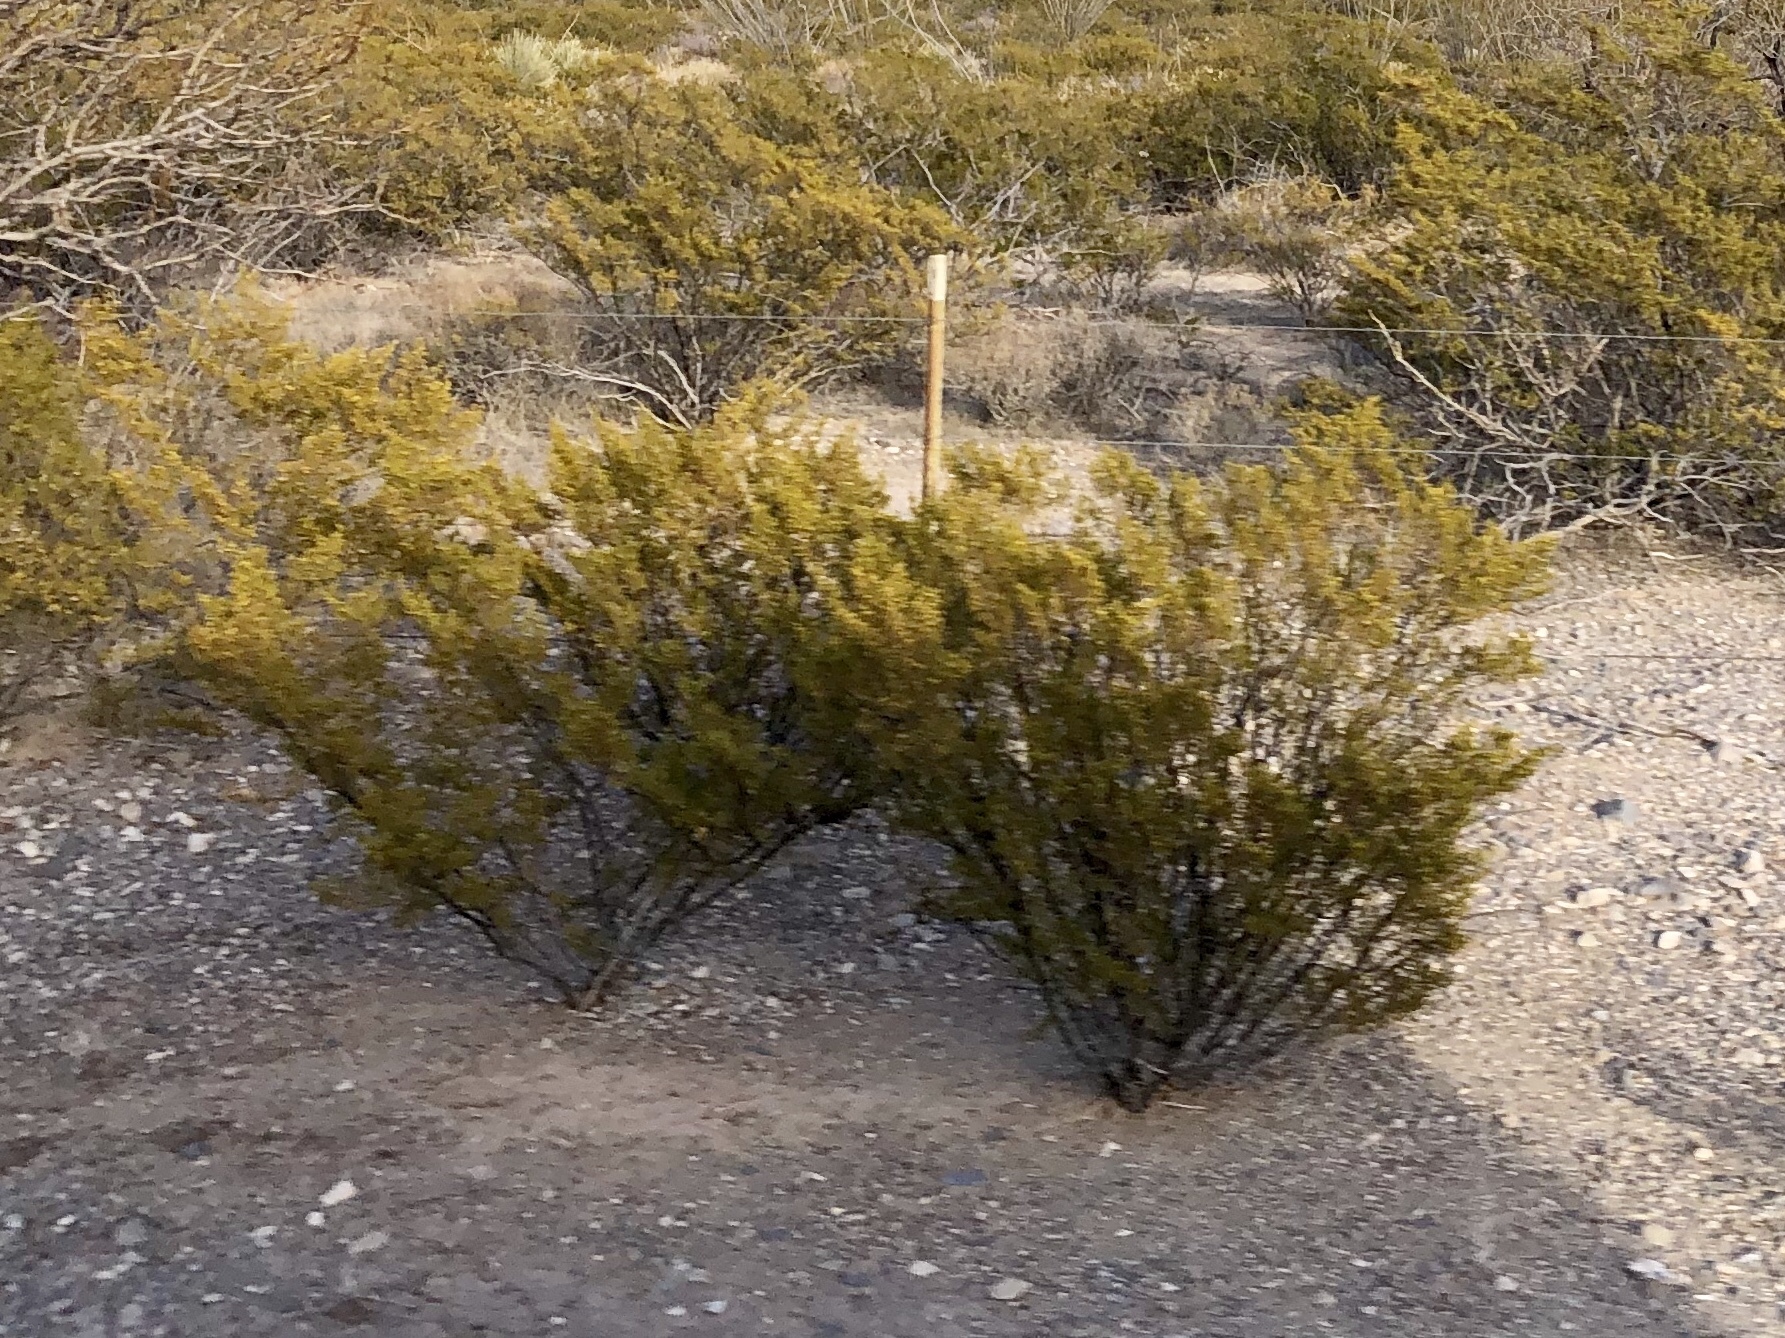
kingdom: Plantae
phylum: Tracheophyta
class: Magnoliopsida
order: Zygophyllales
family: Zygophyllaceae
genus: Larrea
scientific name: Larrea tridentata
